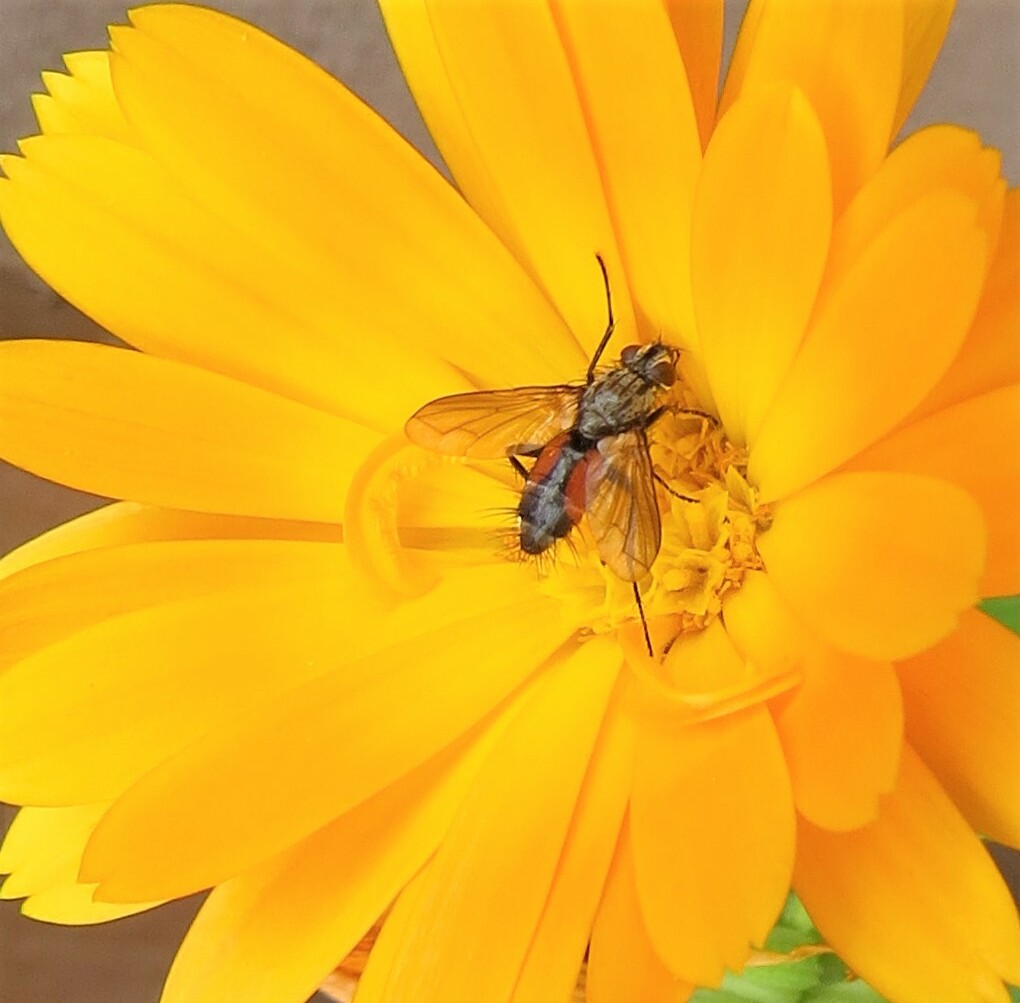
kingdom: Animalia
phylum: Arthropoda
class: Insecta
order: Diptera
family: Tachinidae
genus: Eriothrix
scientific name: Eriothrix rufomaculatus
